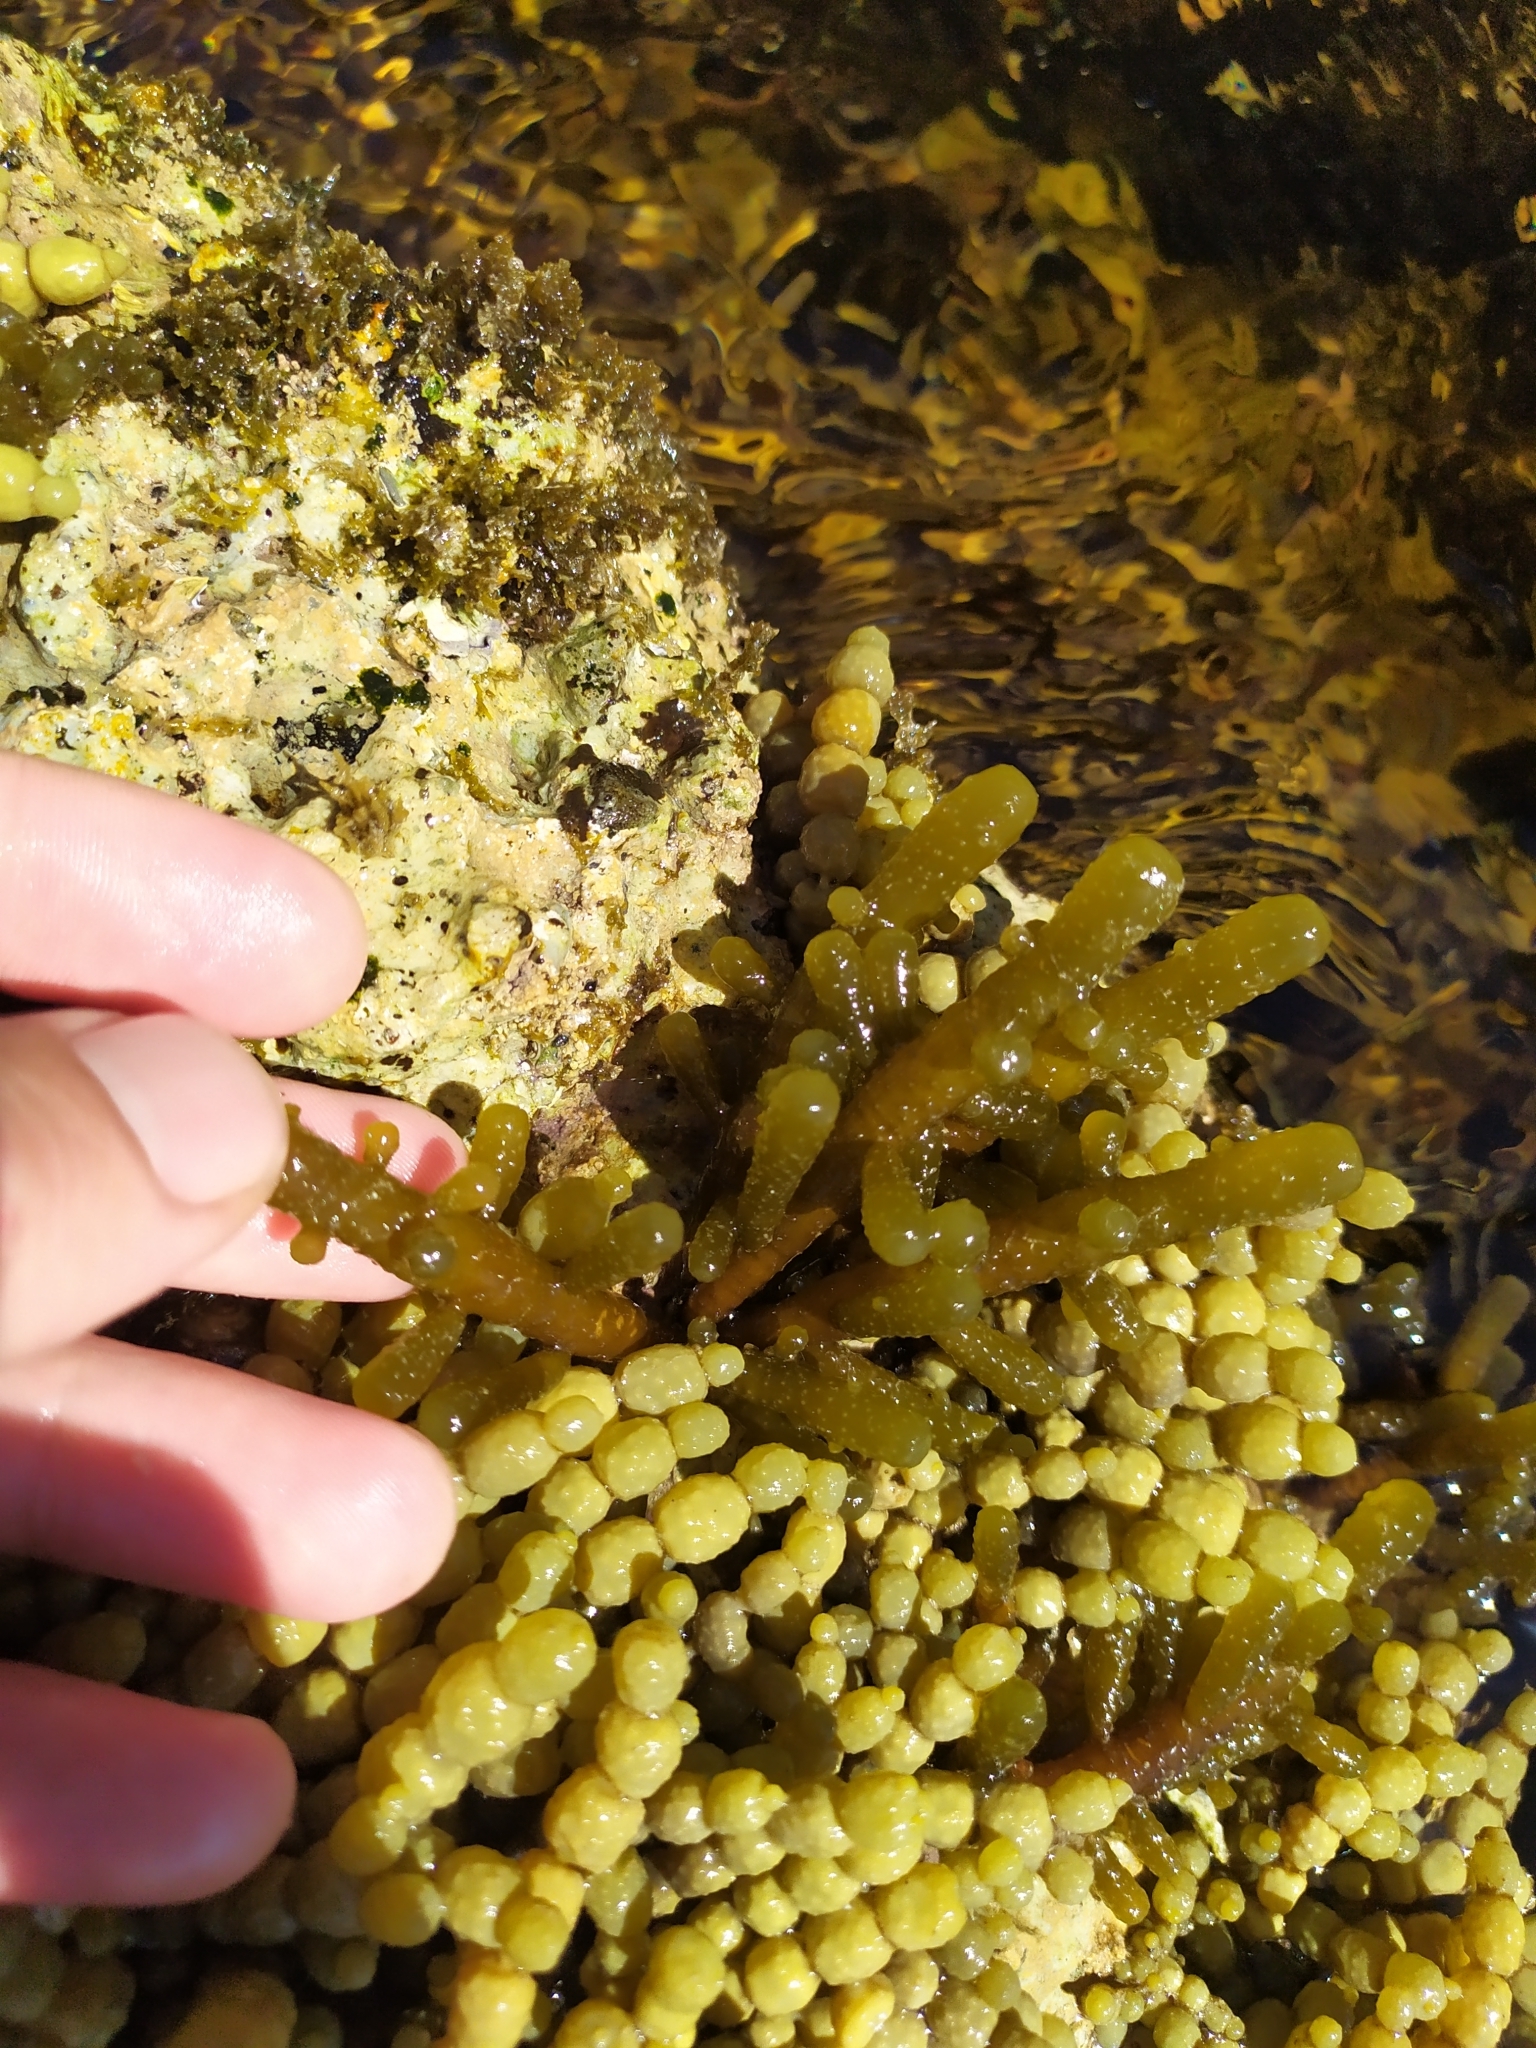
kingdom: Chromista
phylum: Ochrophyta
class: Phaeophyceae
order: Scytothamnales
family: Splachnidiaceae
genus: Splachnidium
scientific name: Splachnidium rugosum
